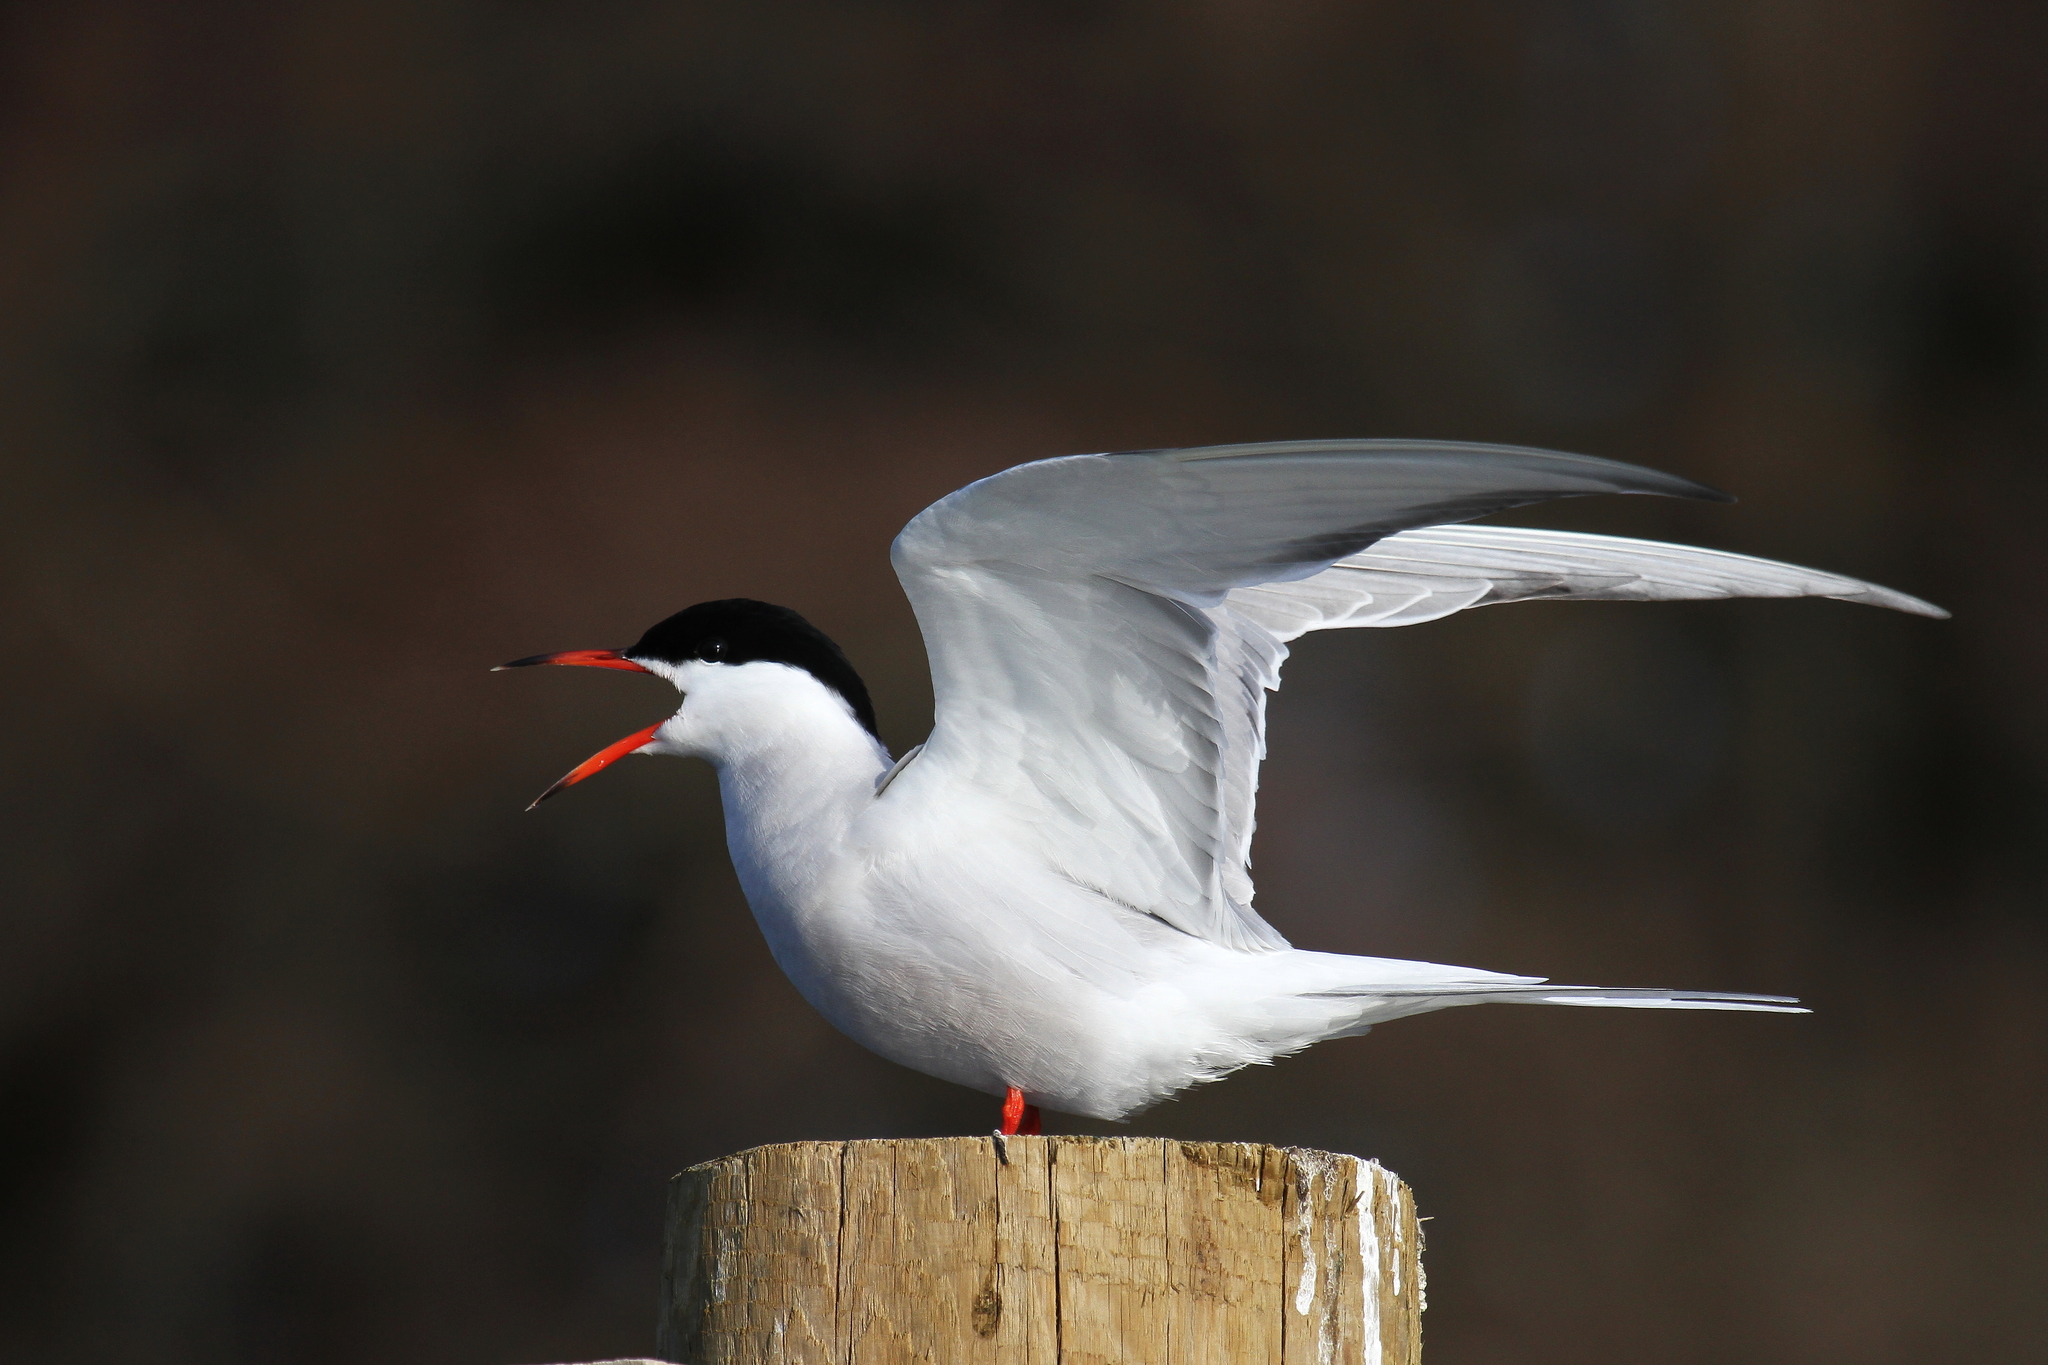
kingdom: Animalia
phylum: Chordata
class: Aves
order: Charadriiformes
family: Laridae
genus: Sterna
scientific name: Sterna hirundo
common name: Common tern
